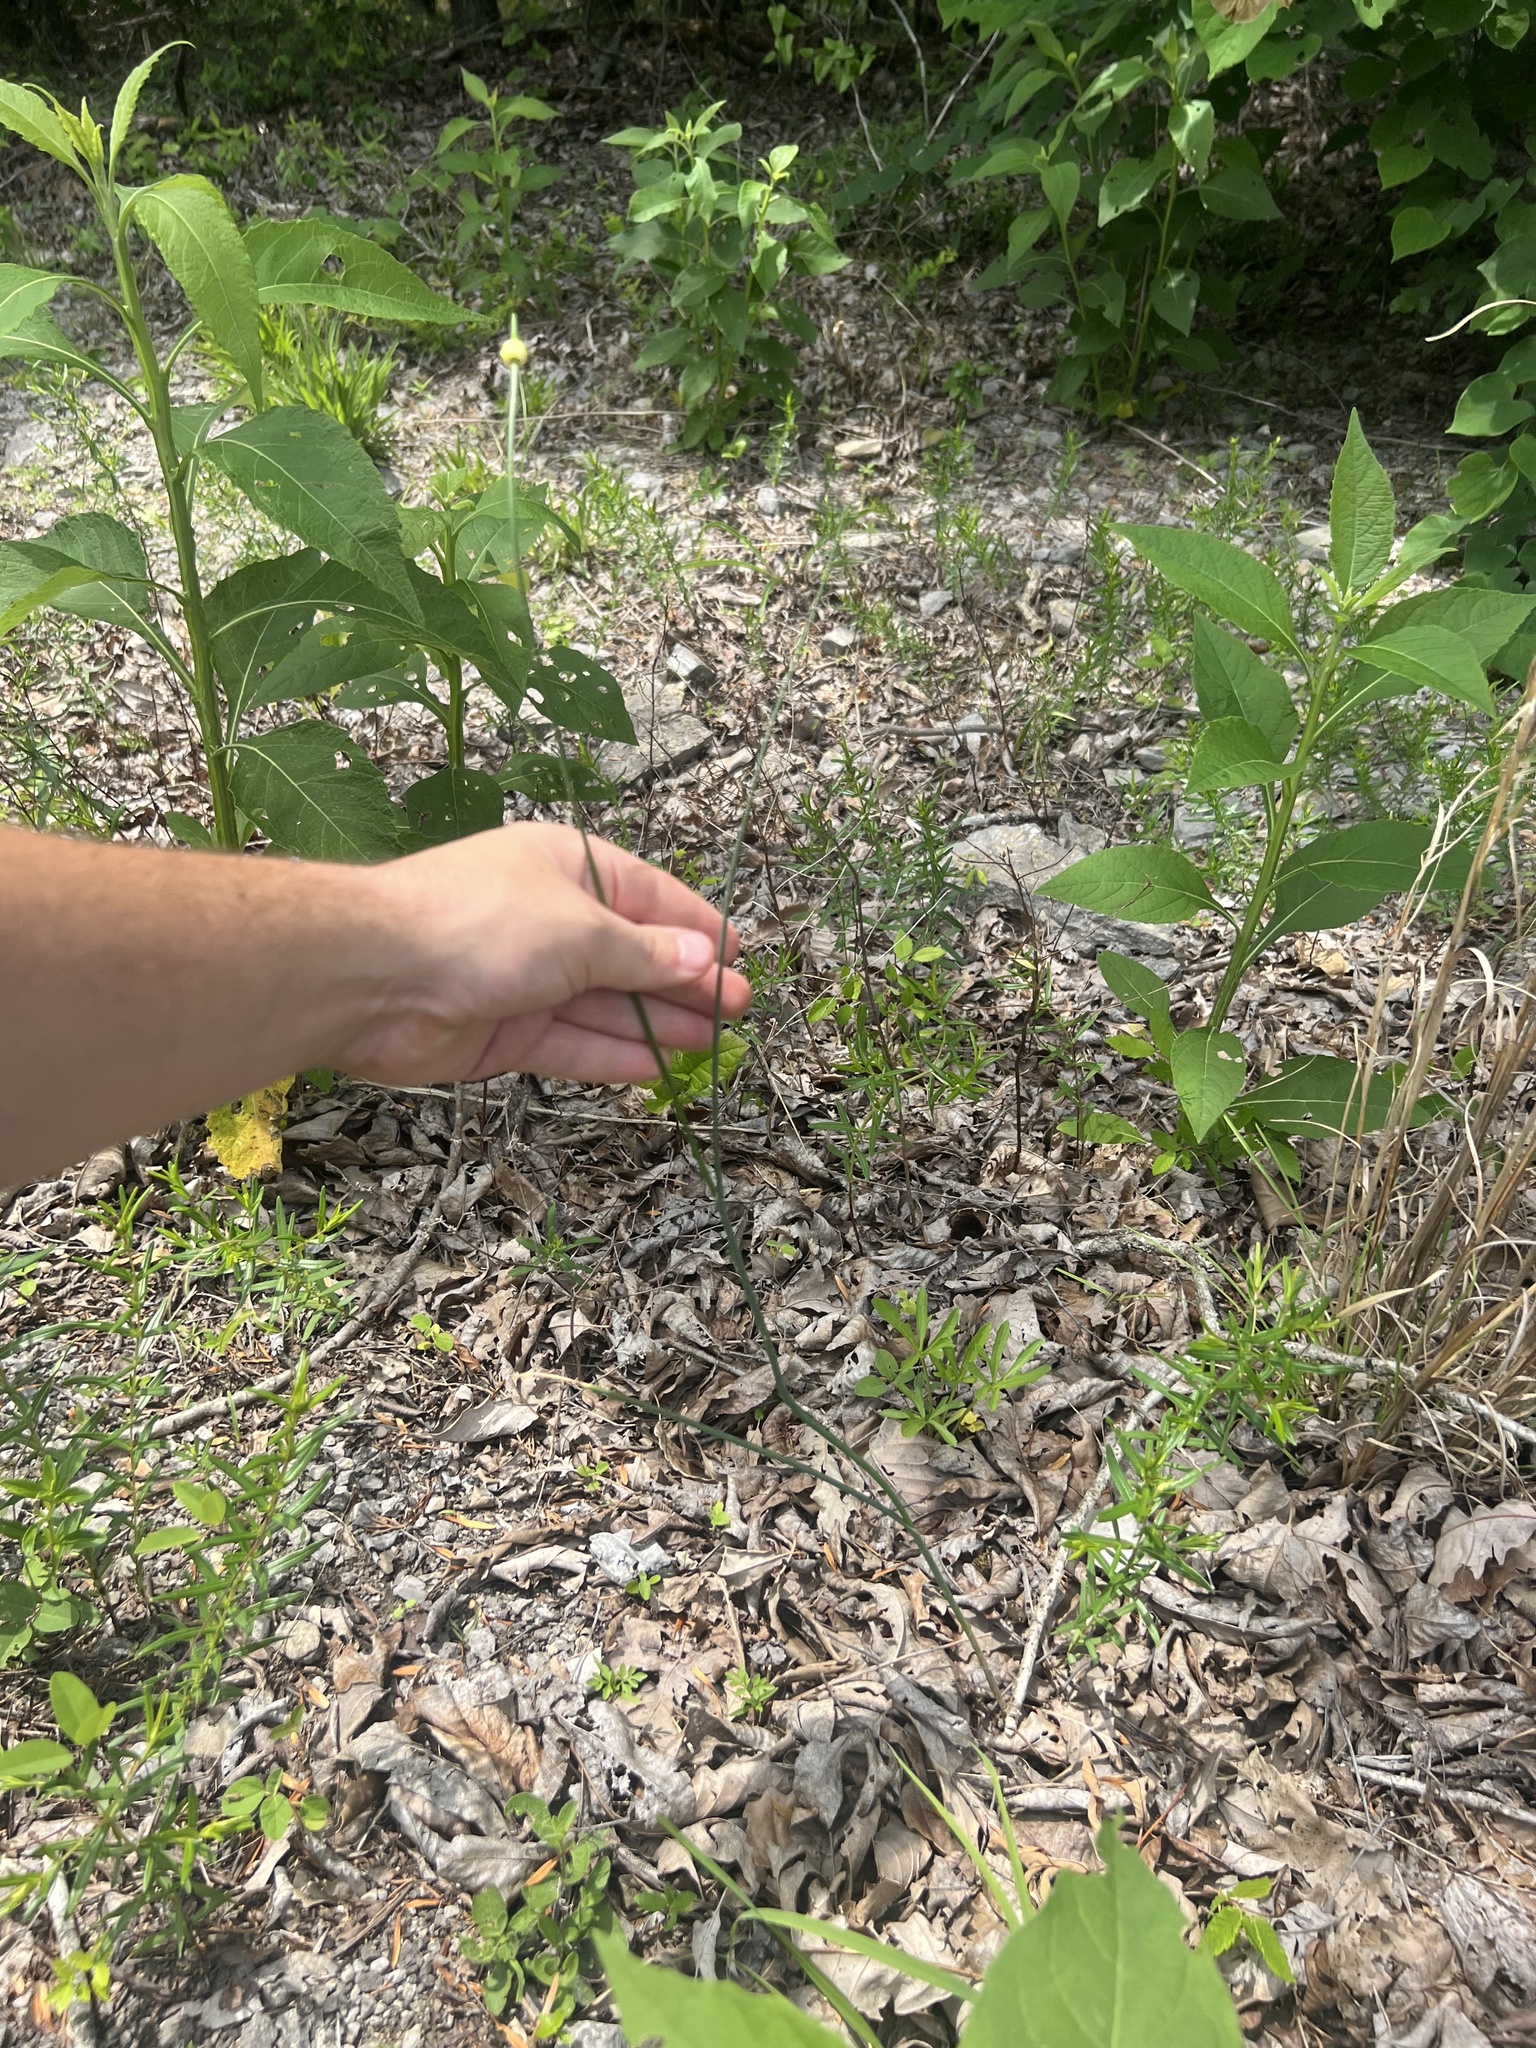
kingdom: Plantae
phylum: Tracheophyta
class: Liliopsida
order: Asparagales
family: Amaryllidaceae
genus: Allium
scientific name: Allium vineale
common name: Crow garlic
